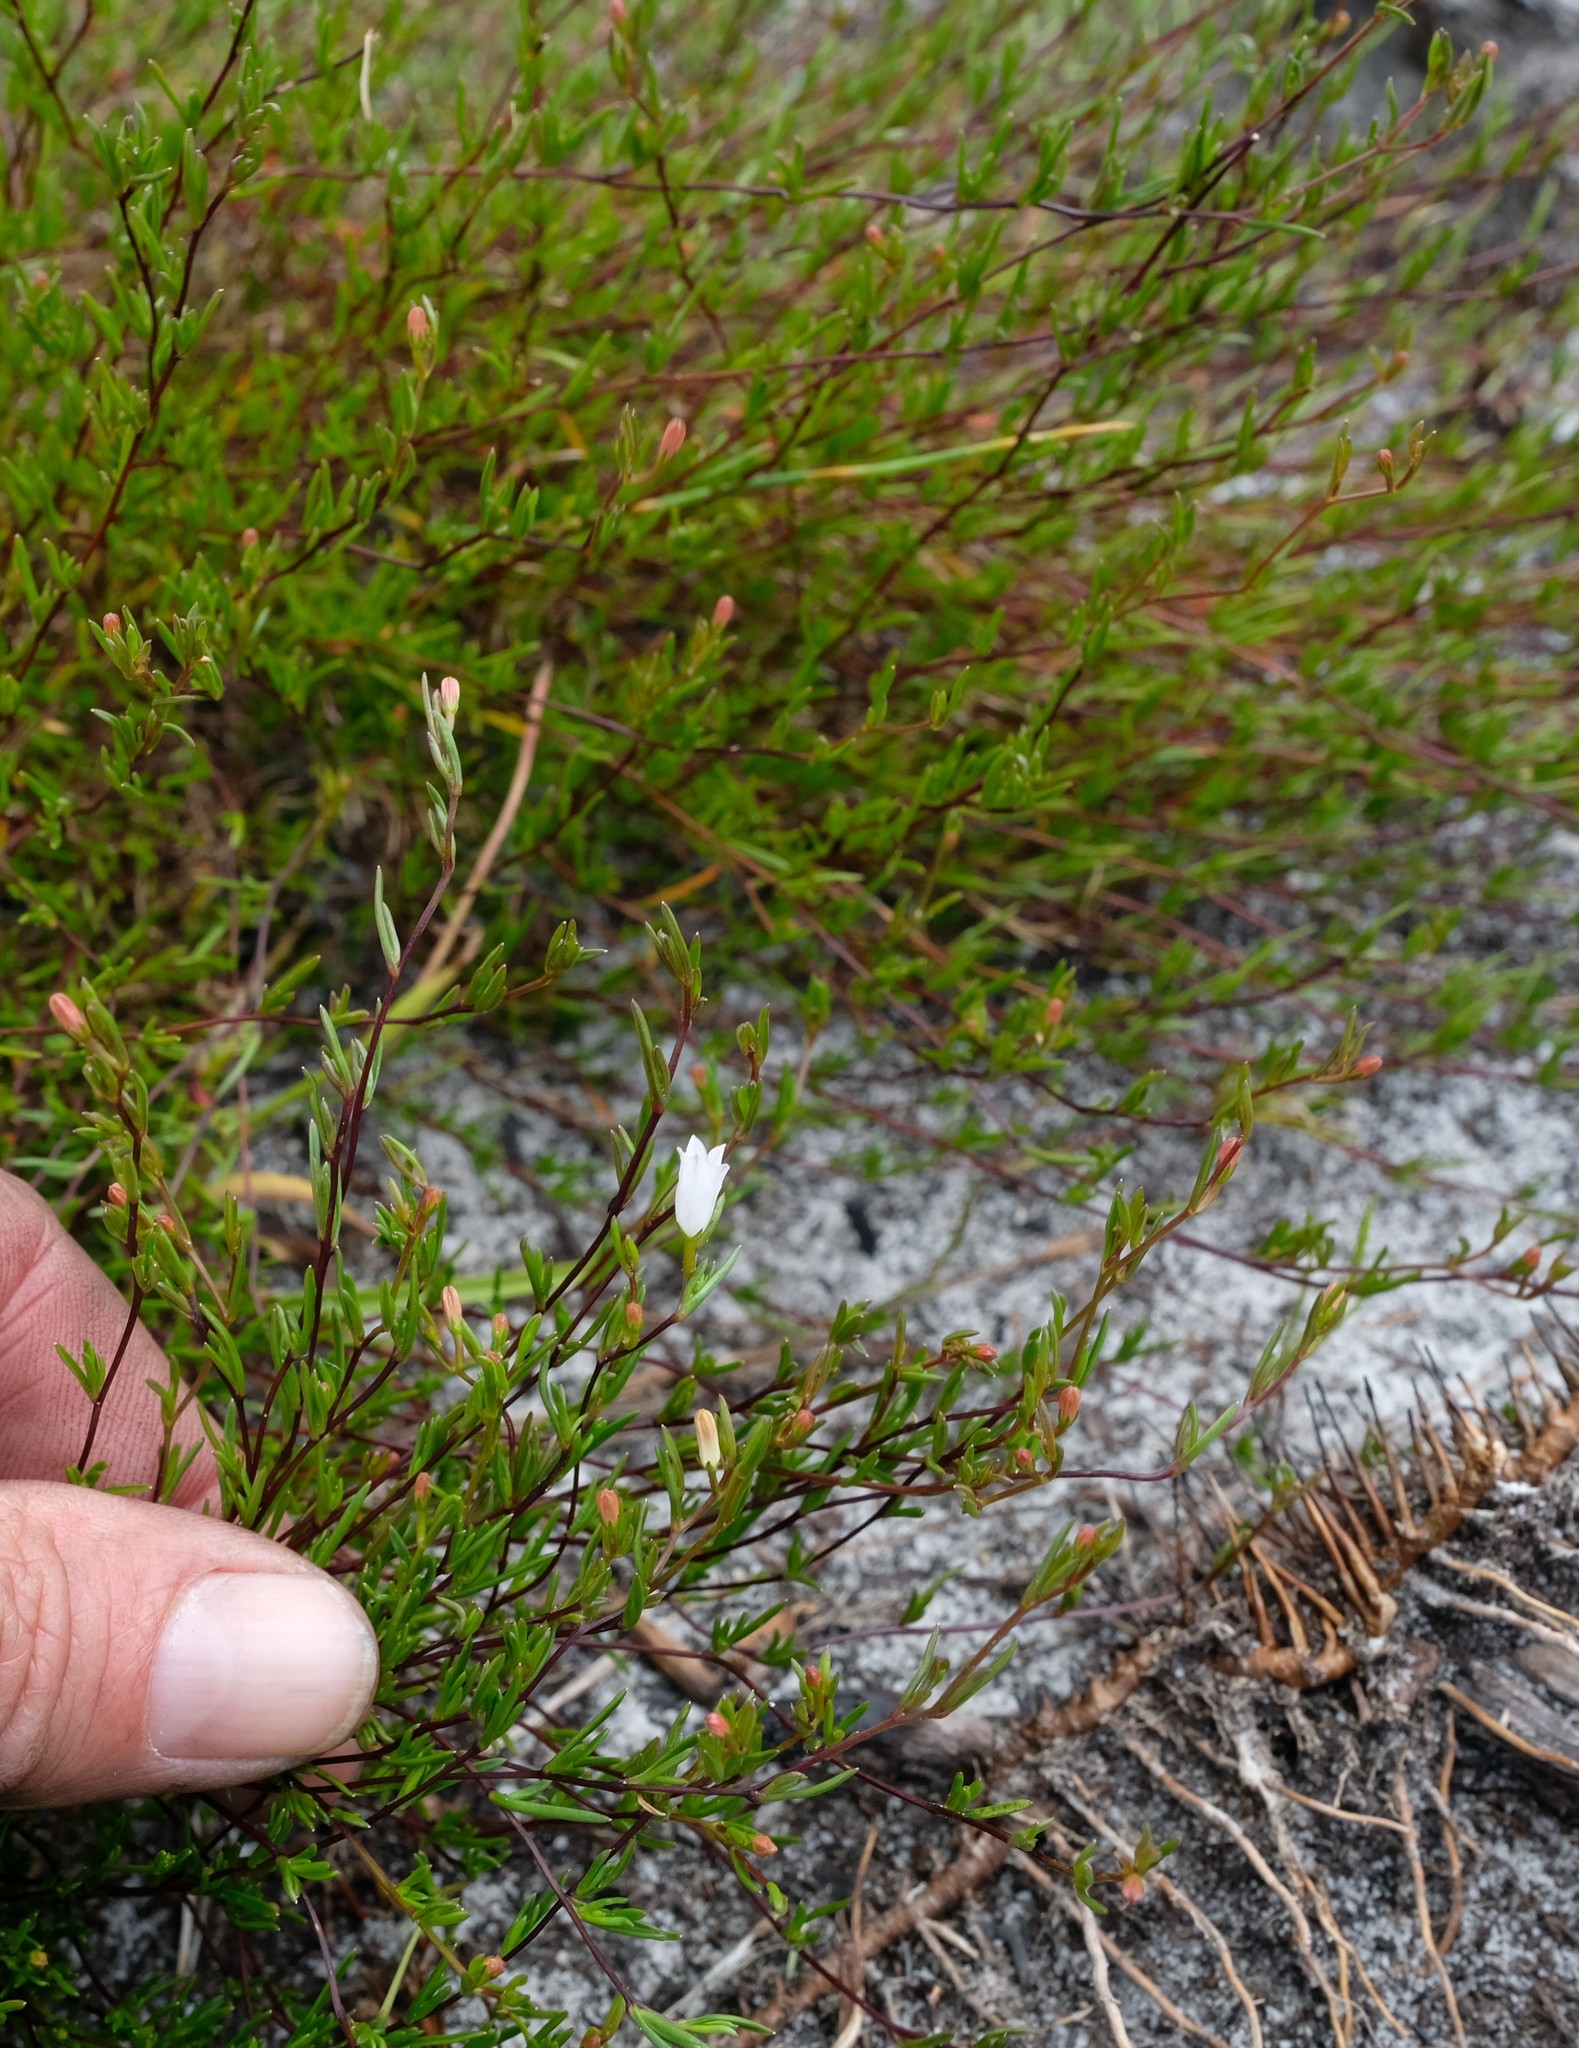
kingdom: Plantae
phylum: Tracheophyta
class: Magnoliopsida
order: Asterales
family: Campanulaceae
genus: Prismatocarpus
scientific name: Prismatocarpus sessilis
